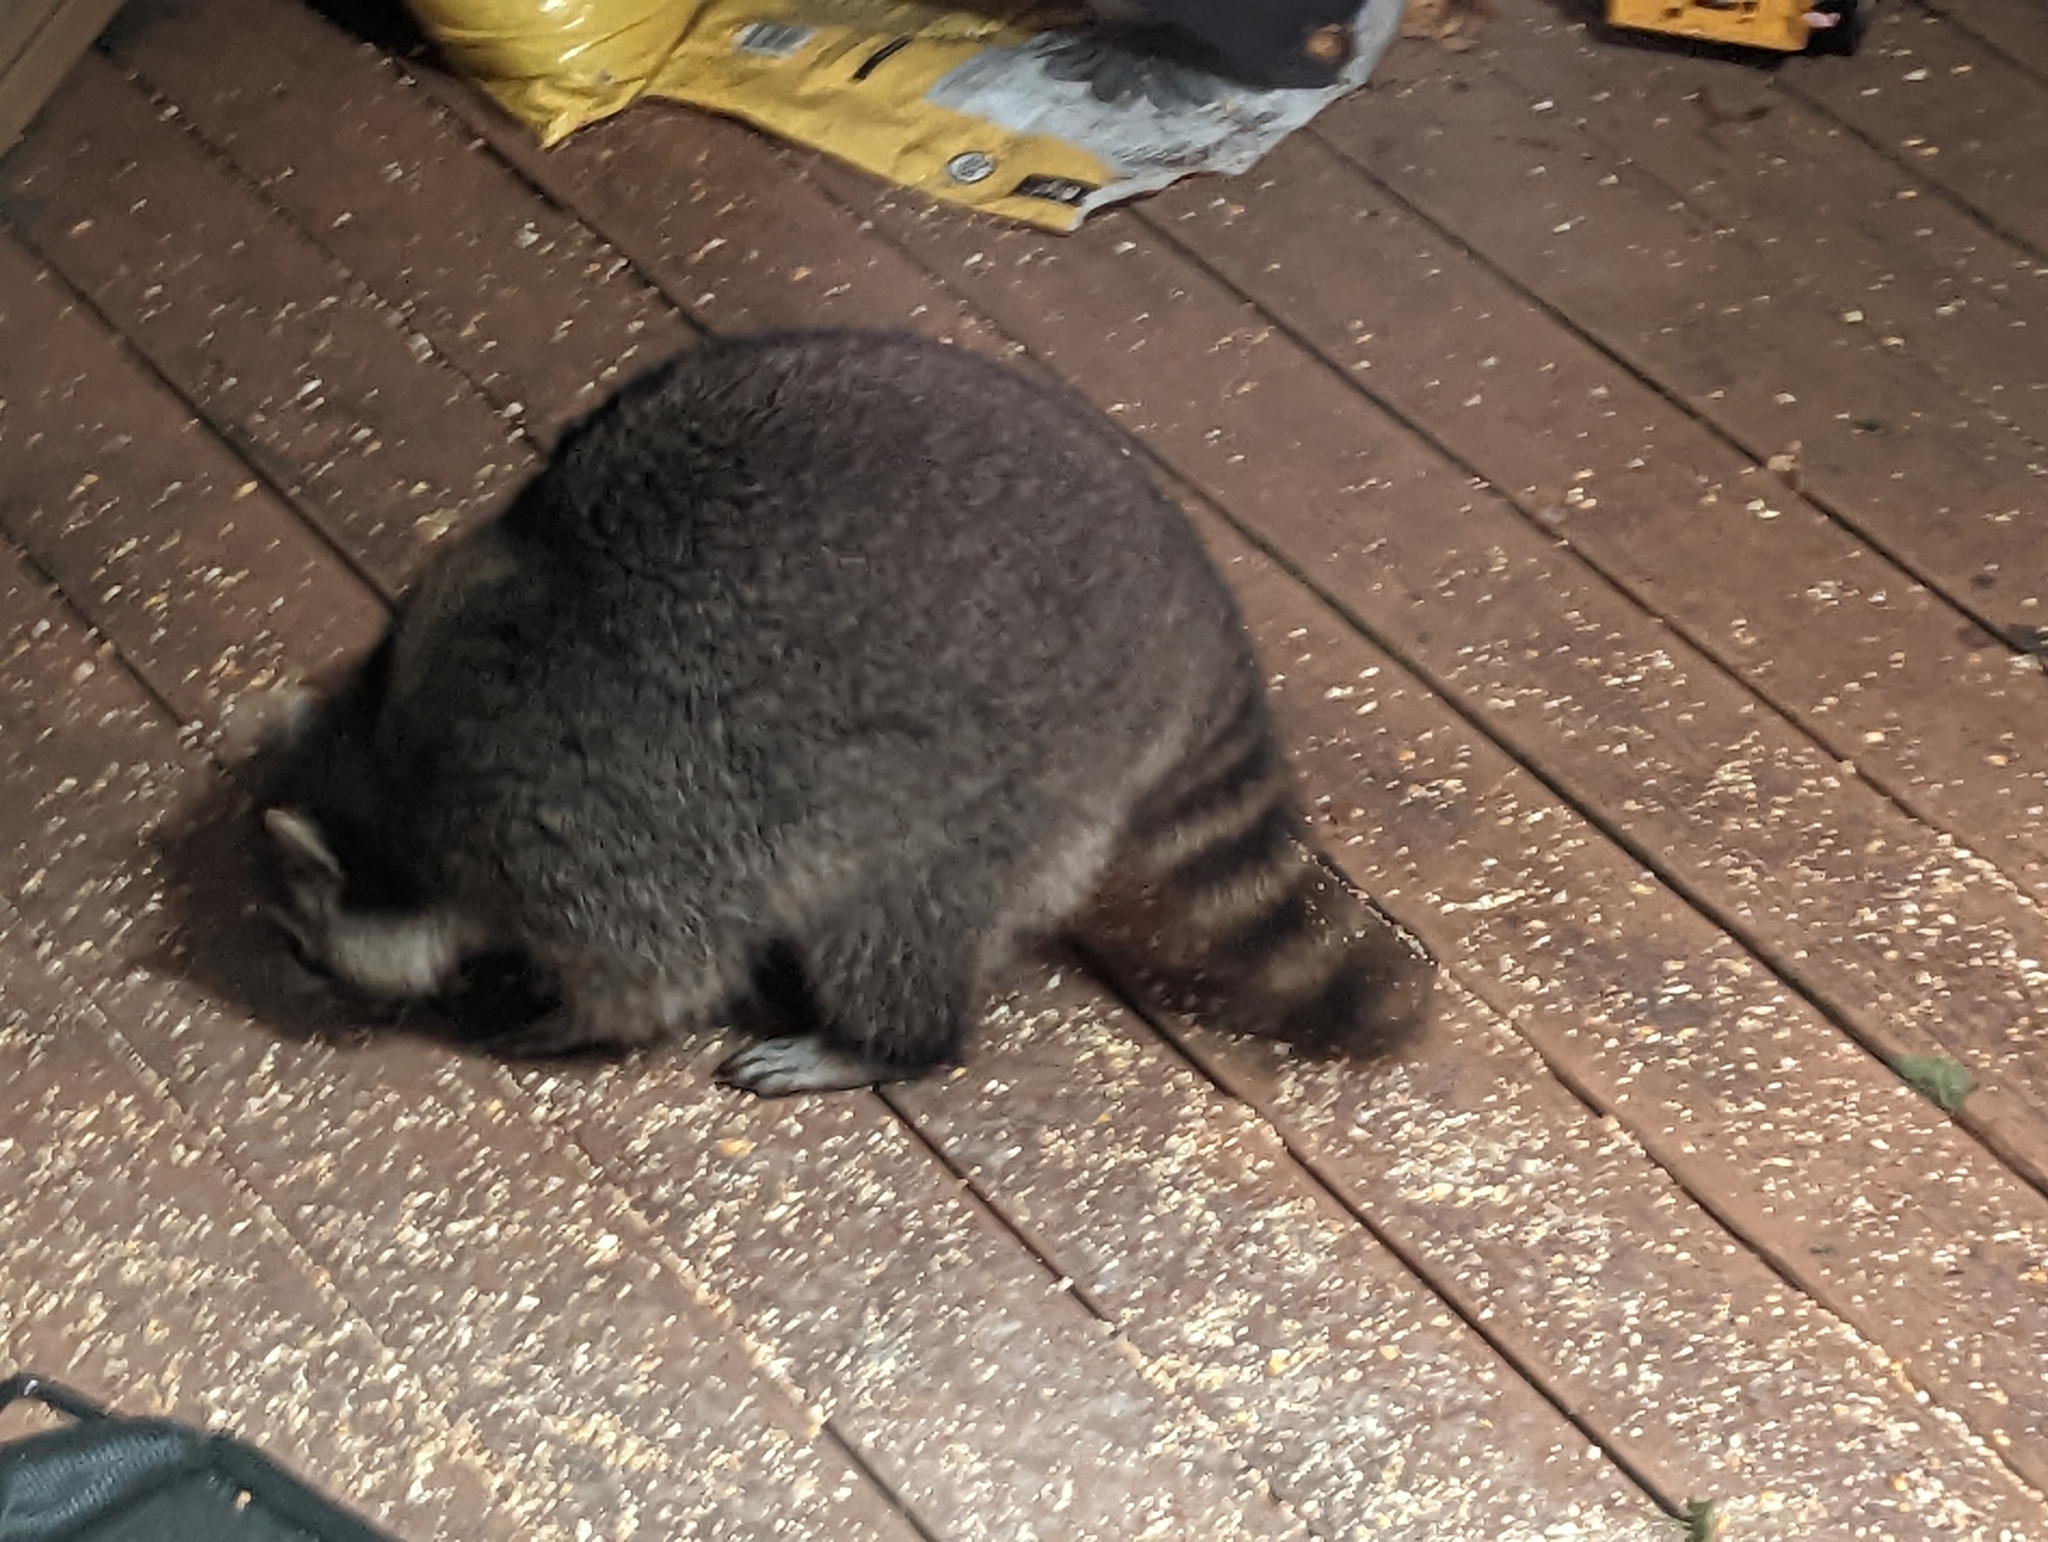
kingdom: Animalia
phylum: Chordata
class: Mammalia
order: Carnivora
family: Procyonidae
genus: Procyon
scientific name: Procyon lotor
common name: Raccoon
